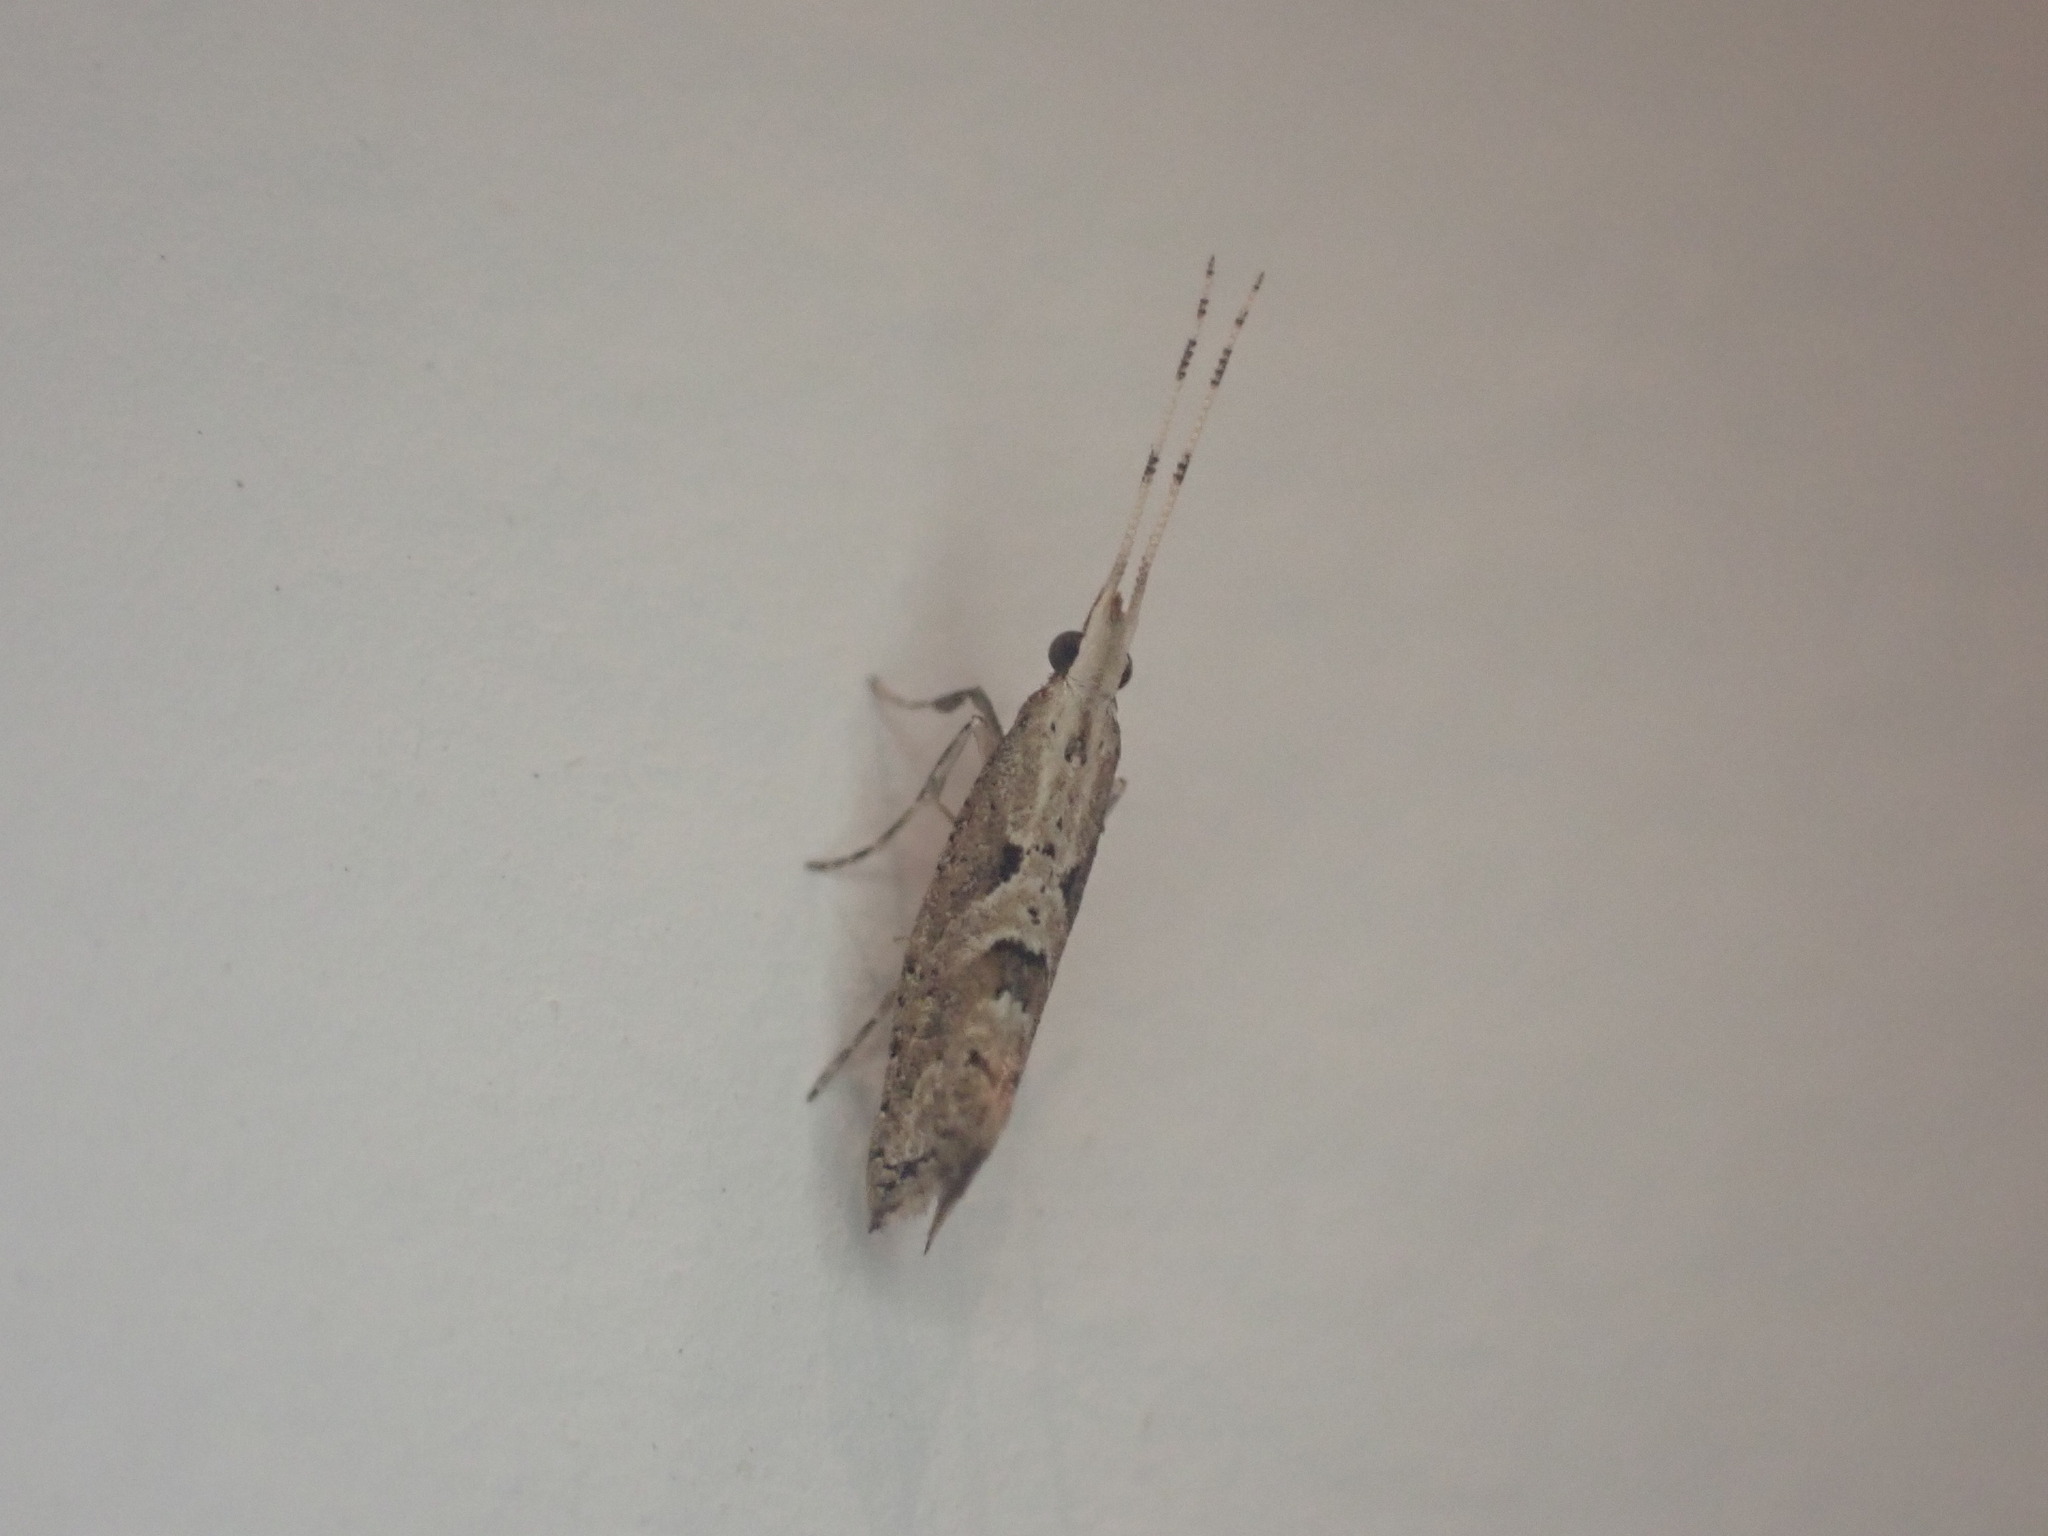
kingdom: Animalia
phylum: Arthropoda
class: Insecta
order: Lepidoptera
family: Plutellidae
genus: Leuroperna
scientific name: Leuroperna sera
